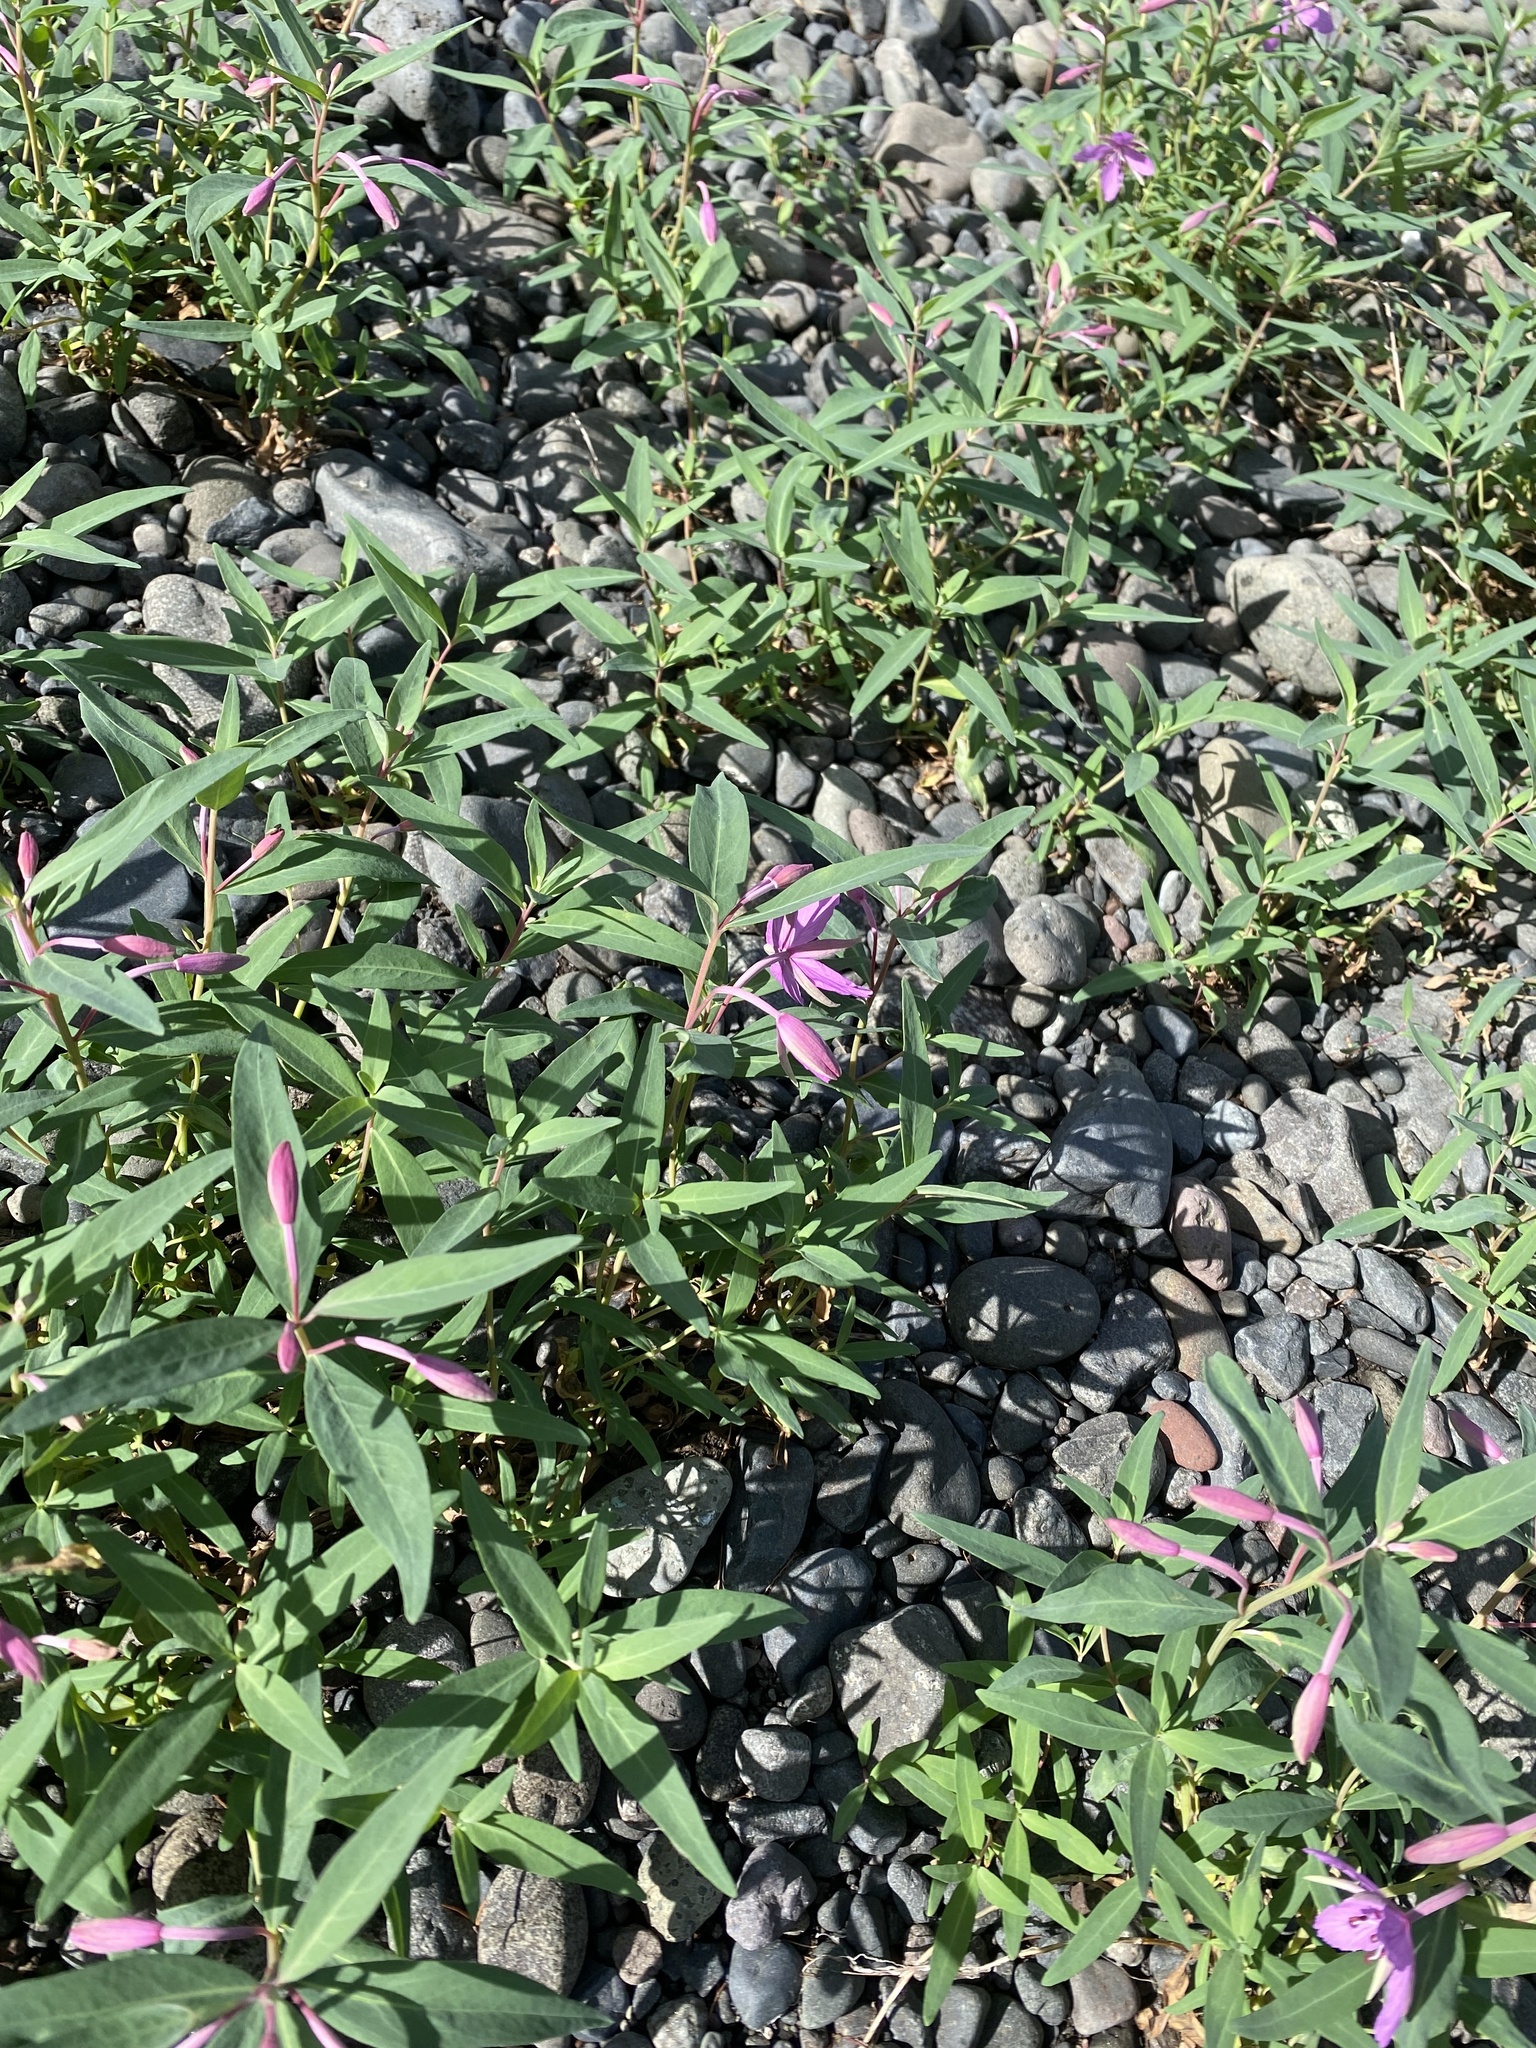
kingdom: Plantae
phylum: Tracheophyta
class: Magnoliopsida
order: Myrtales
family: Onagraceae
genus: Chamaenerion
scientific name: Chamaenerion latifolium
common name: Dwarf fireweed
